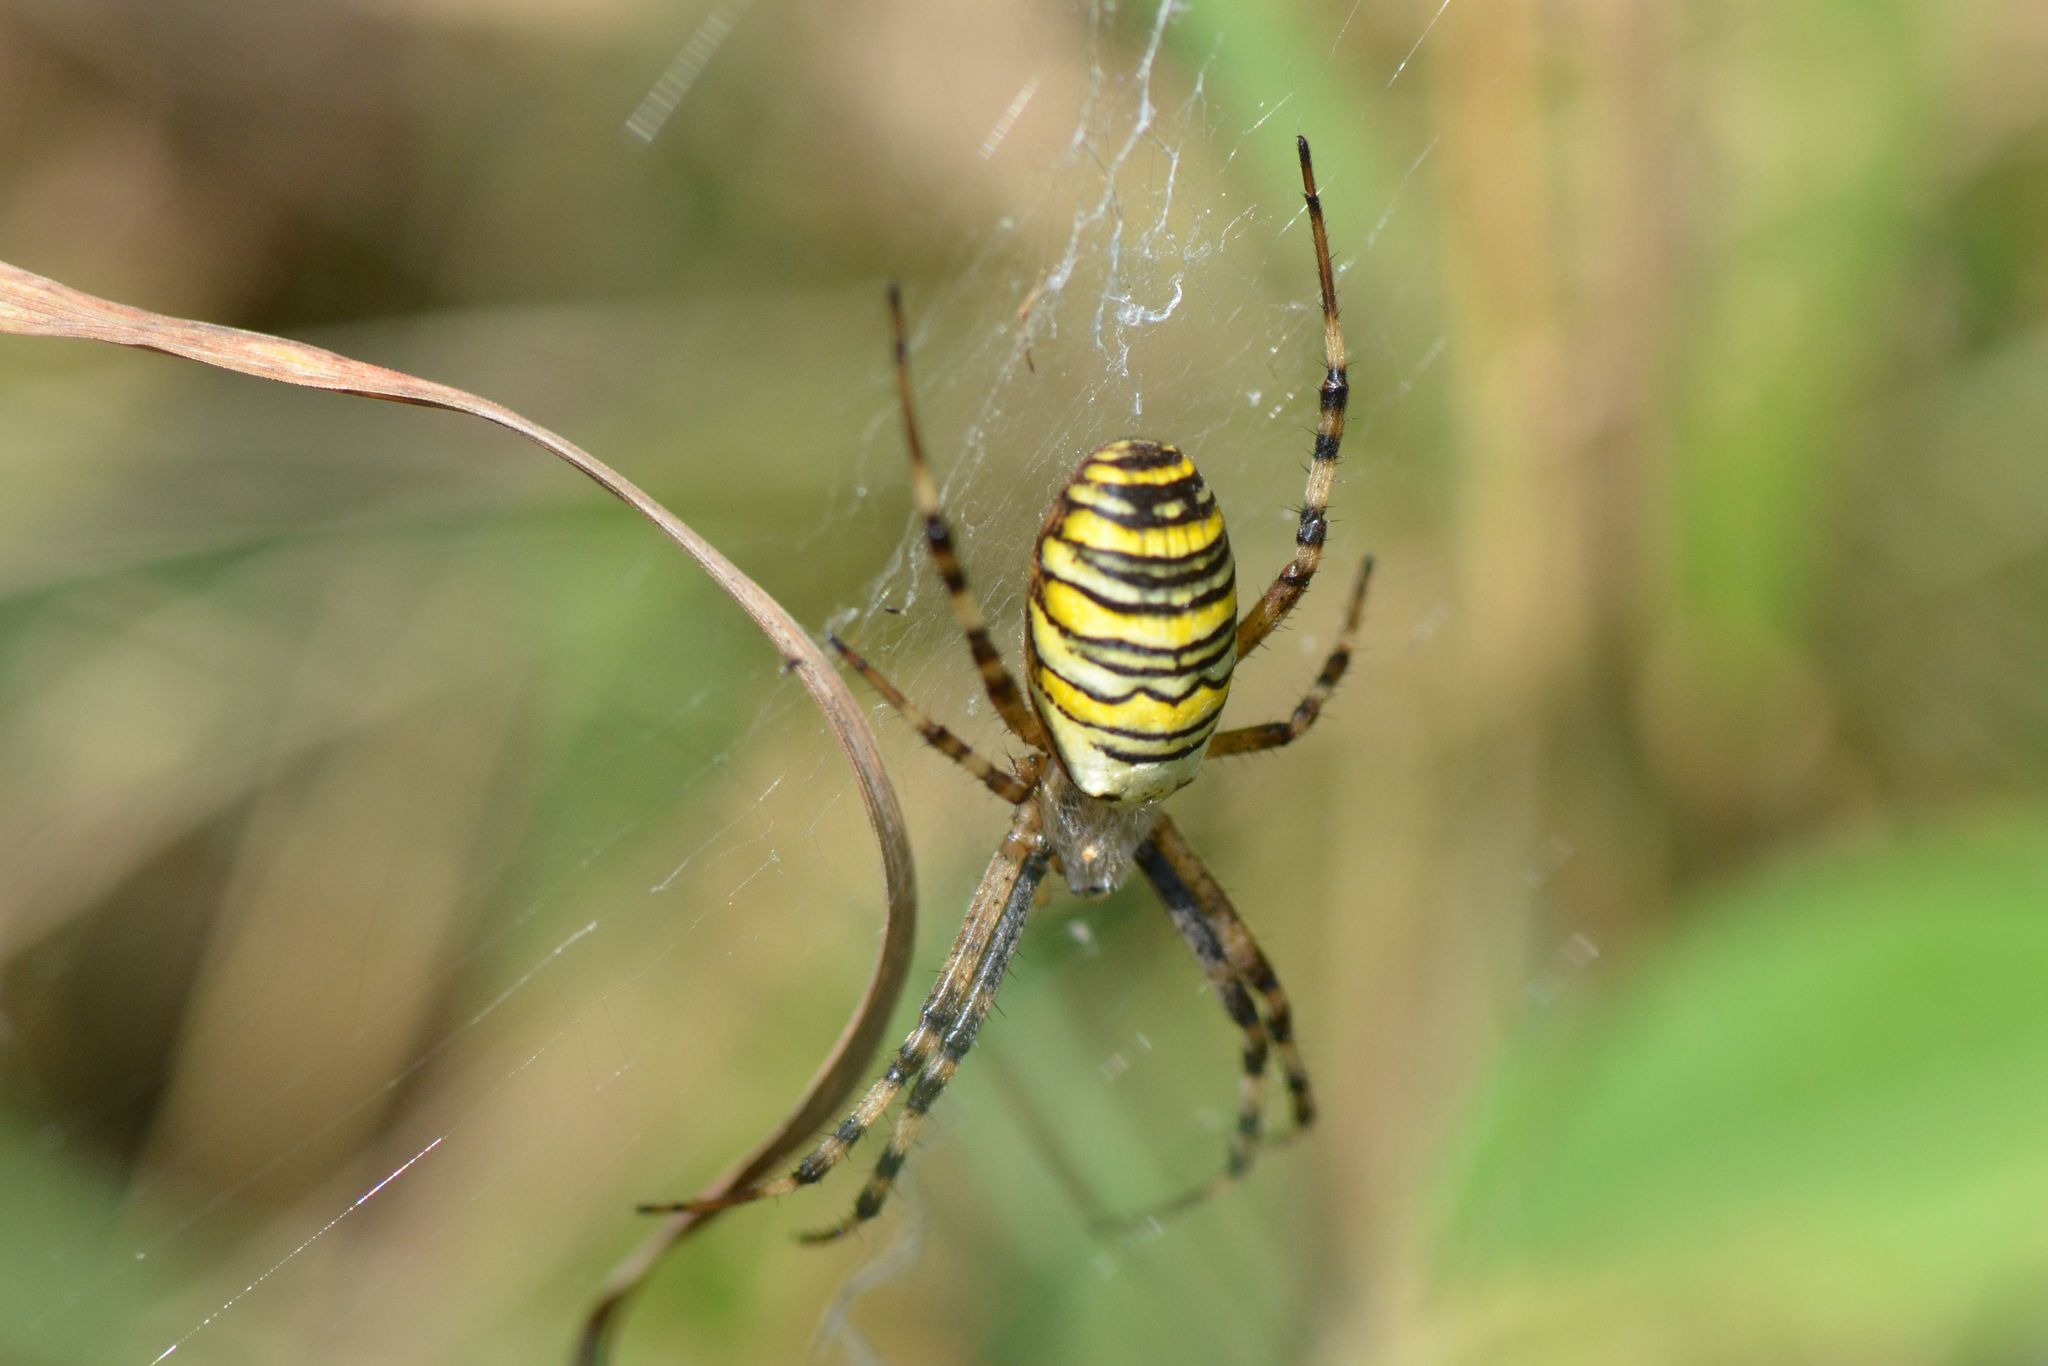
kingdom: Animalia
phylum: Arthropoda
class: Arachnida
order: Araneae
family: Araneidae
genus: Argiope
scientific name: Argiope bruennichi
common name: Wasp spider
